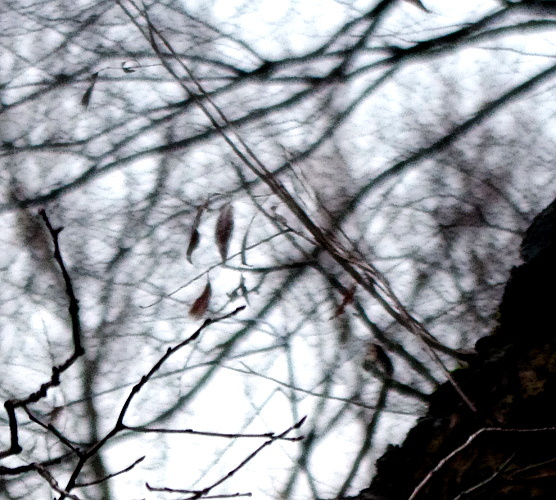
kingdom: Plantae
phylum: Tracheophyta
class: Magnoliopsida
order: Malpighiales
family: Salicaceae
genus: Salix
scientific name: Salix alba
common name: White willow
